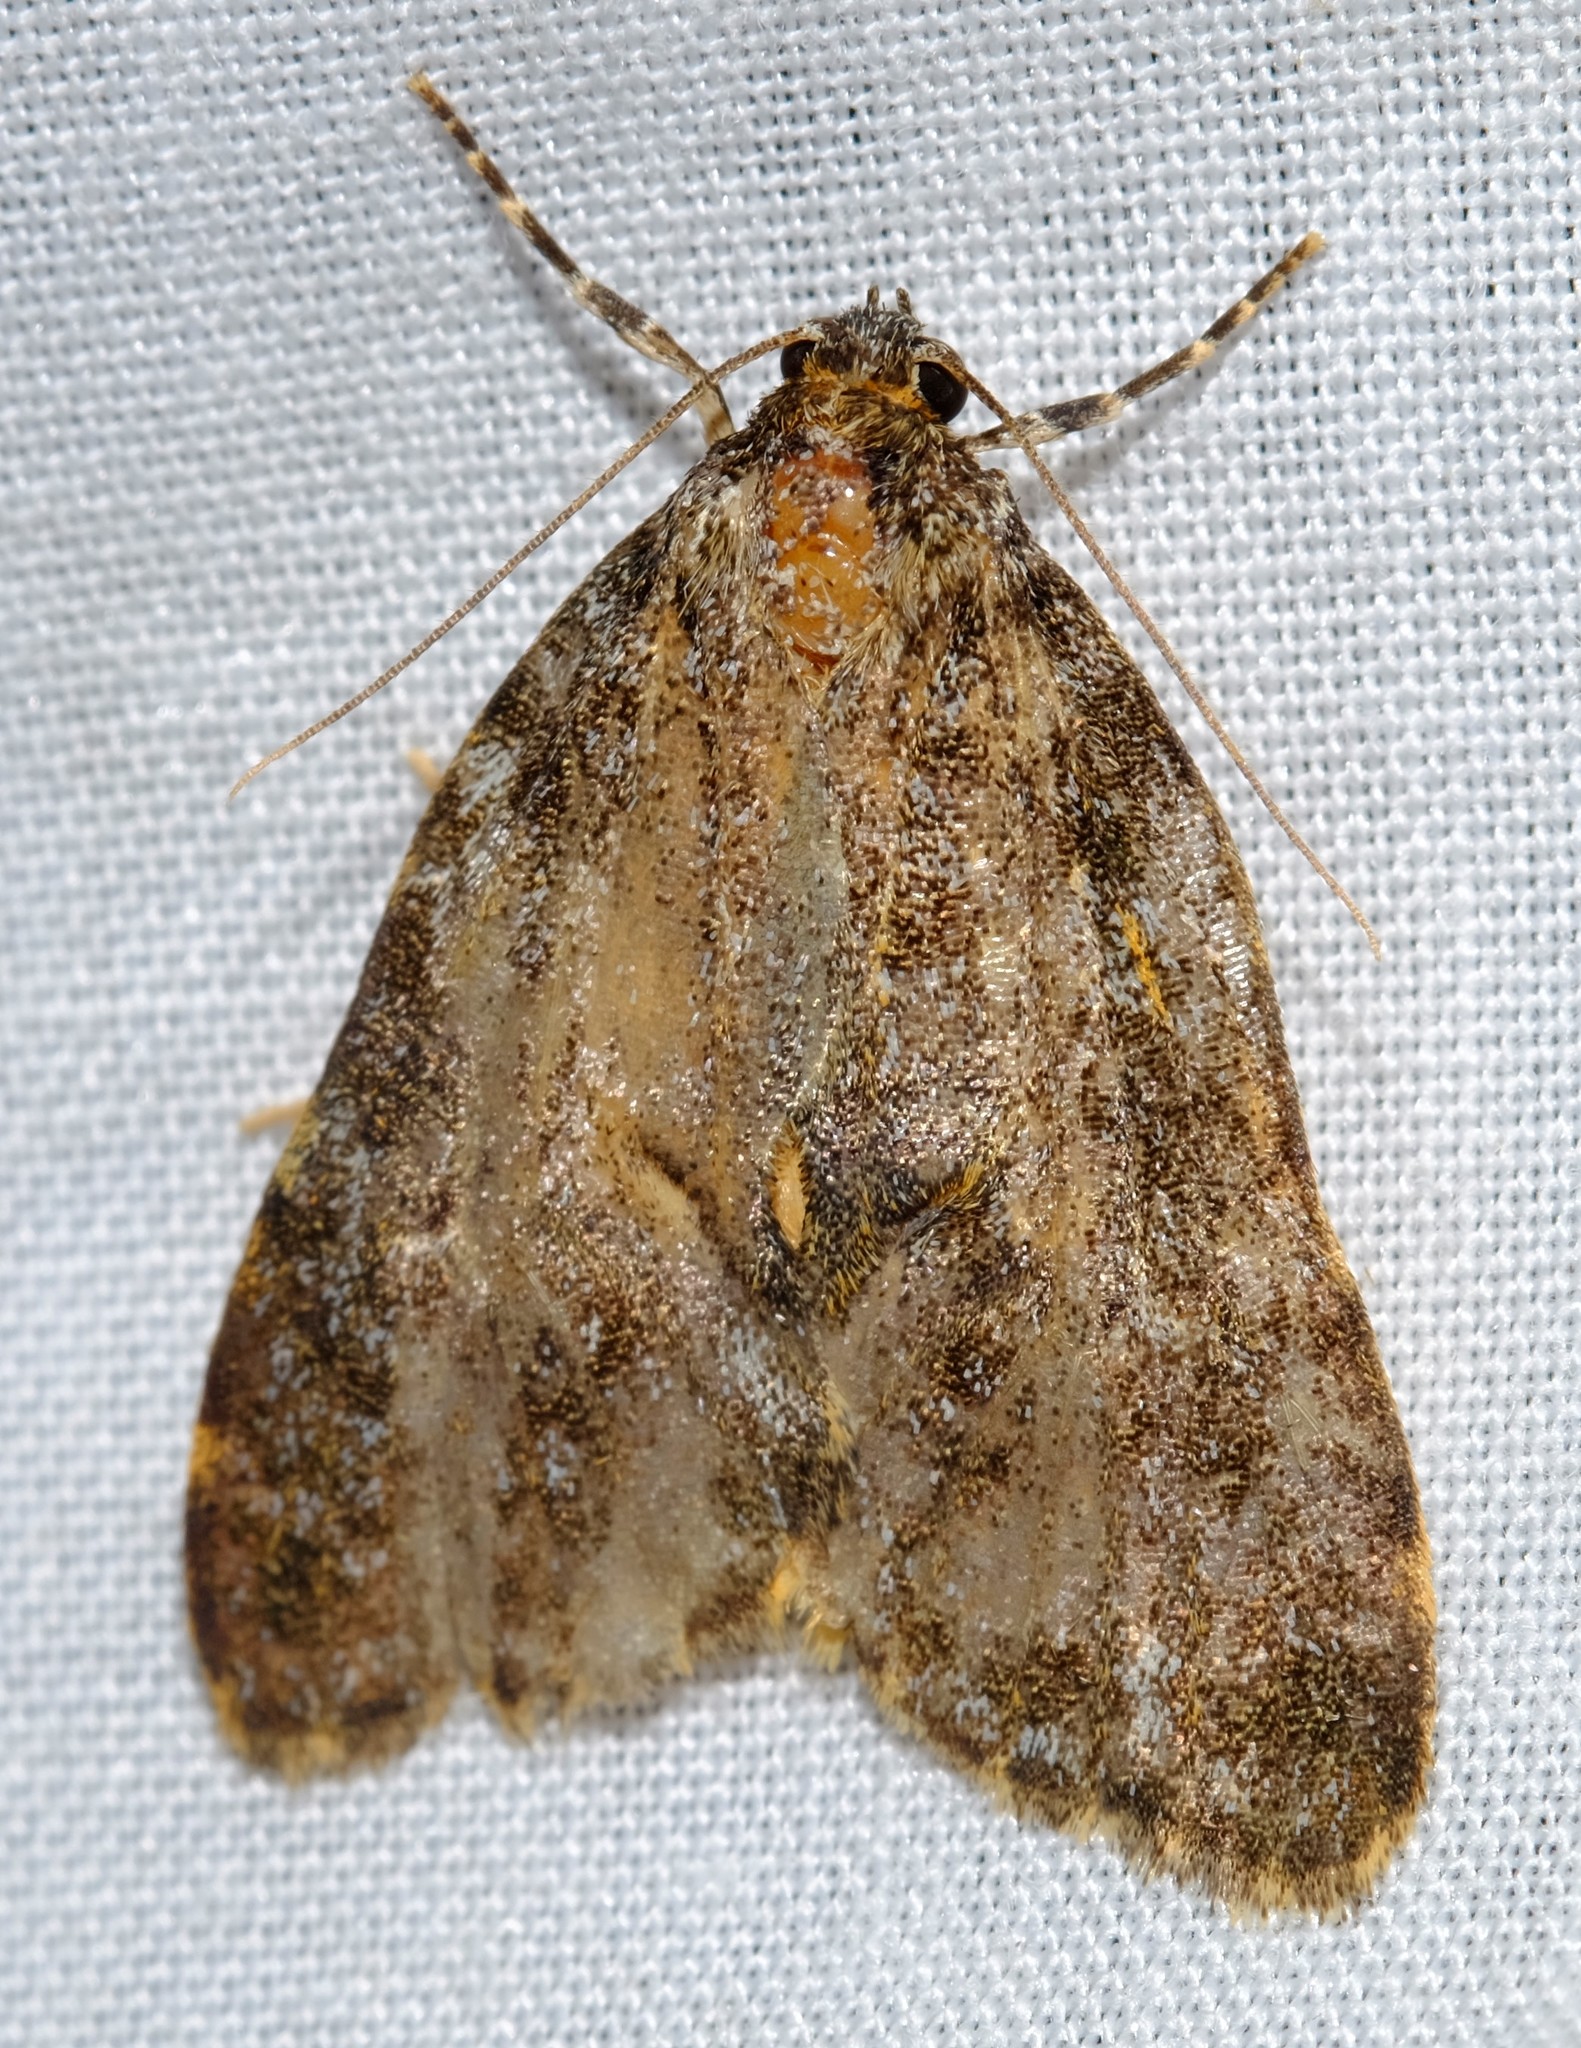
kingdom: Animalia
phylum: Arthropoda
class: Insecta
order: Lepidoptera
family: Erebidae
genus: Parelictis
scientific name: Parelictis saleuta
